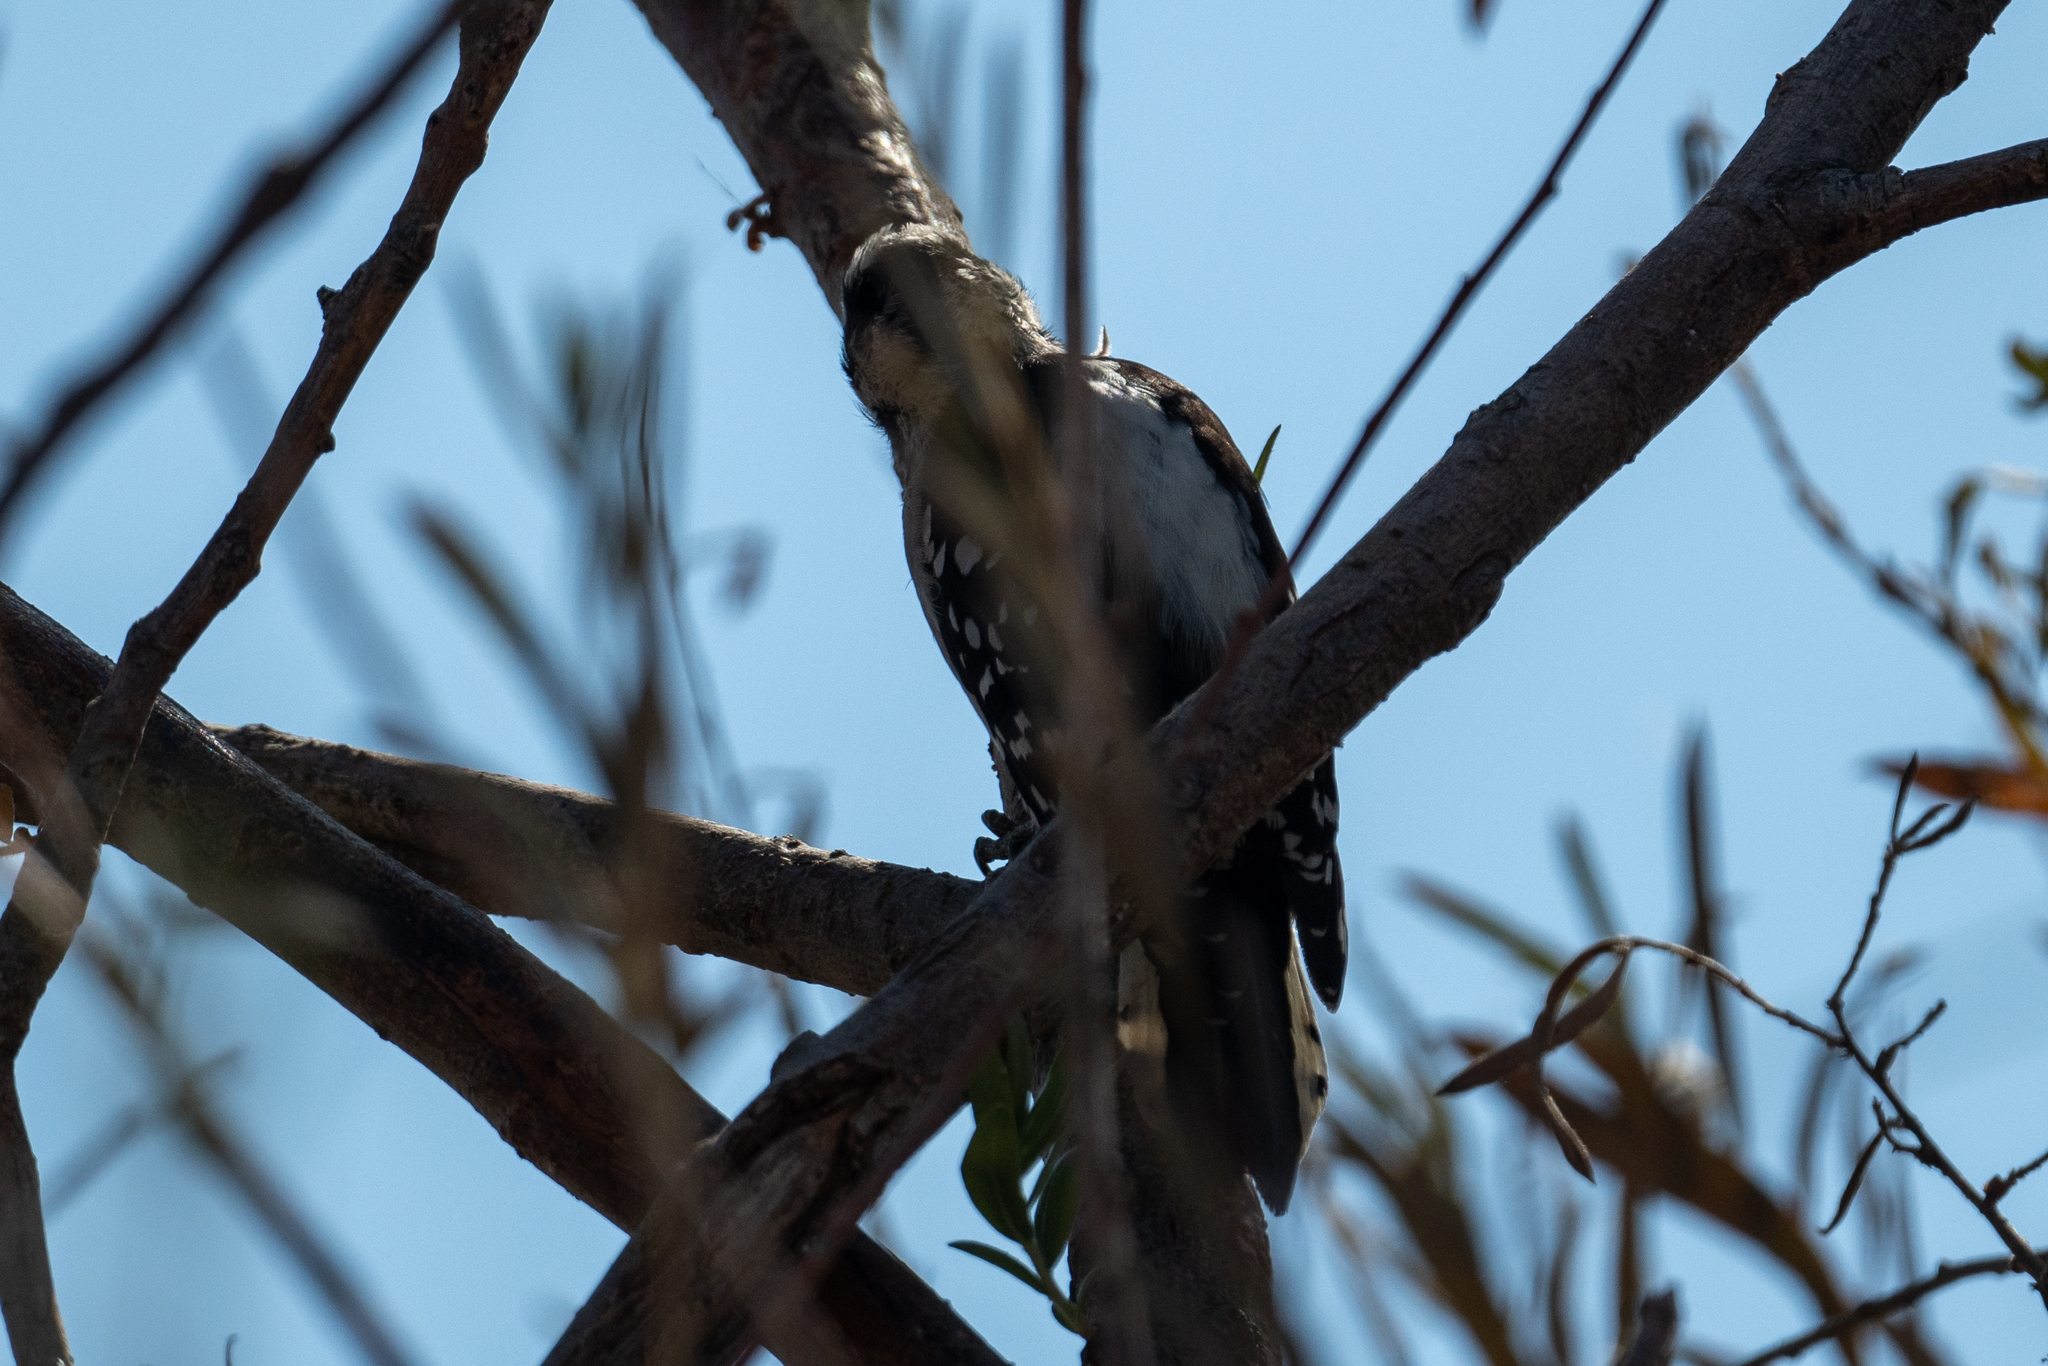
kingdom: Animalia
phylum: Chordata
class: Aves
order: Piciformes
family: Picidae
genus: Dryobates
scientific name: Dryobates pubescens
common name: Downy woodpecker
